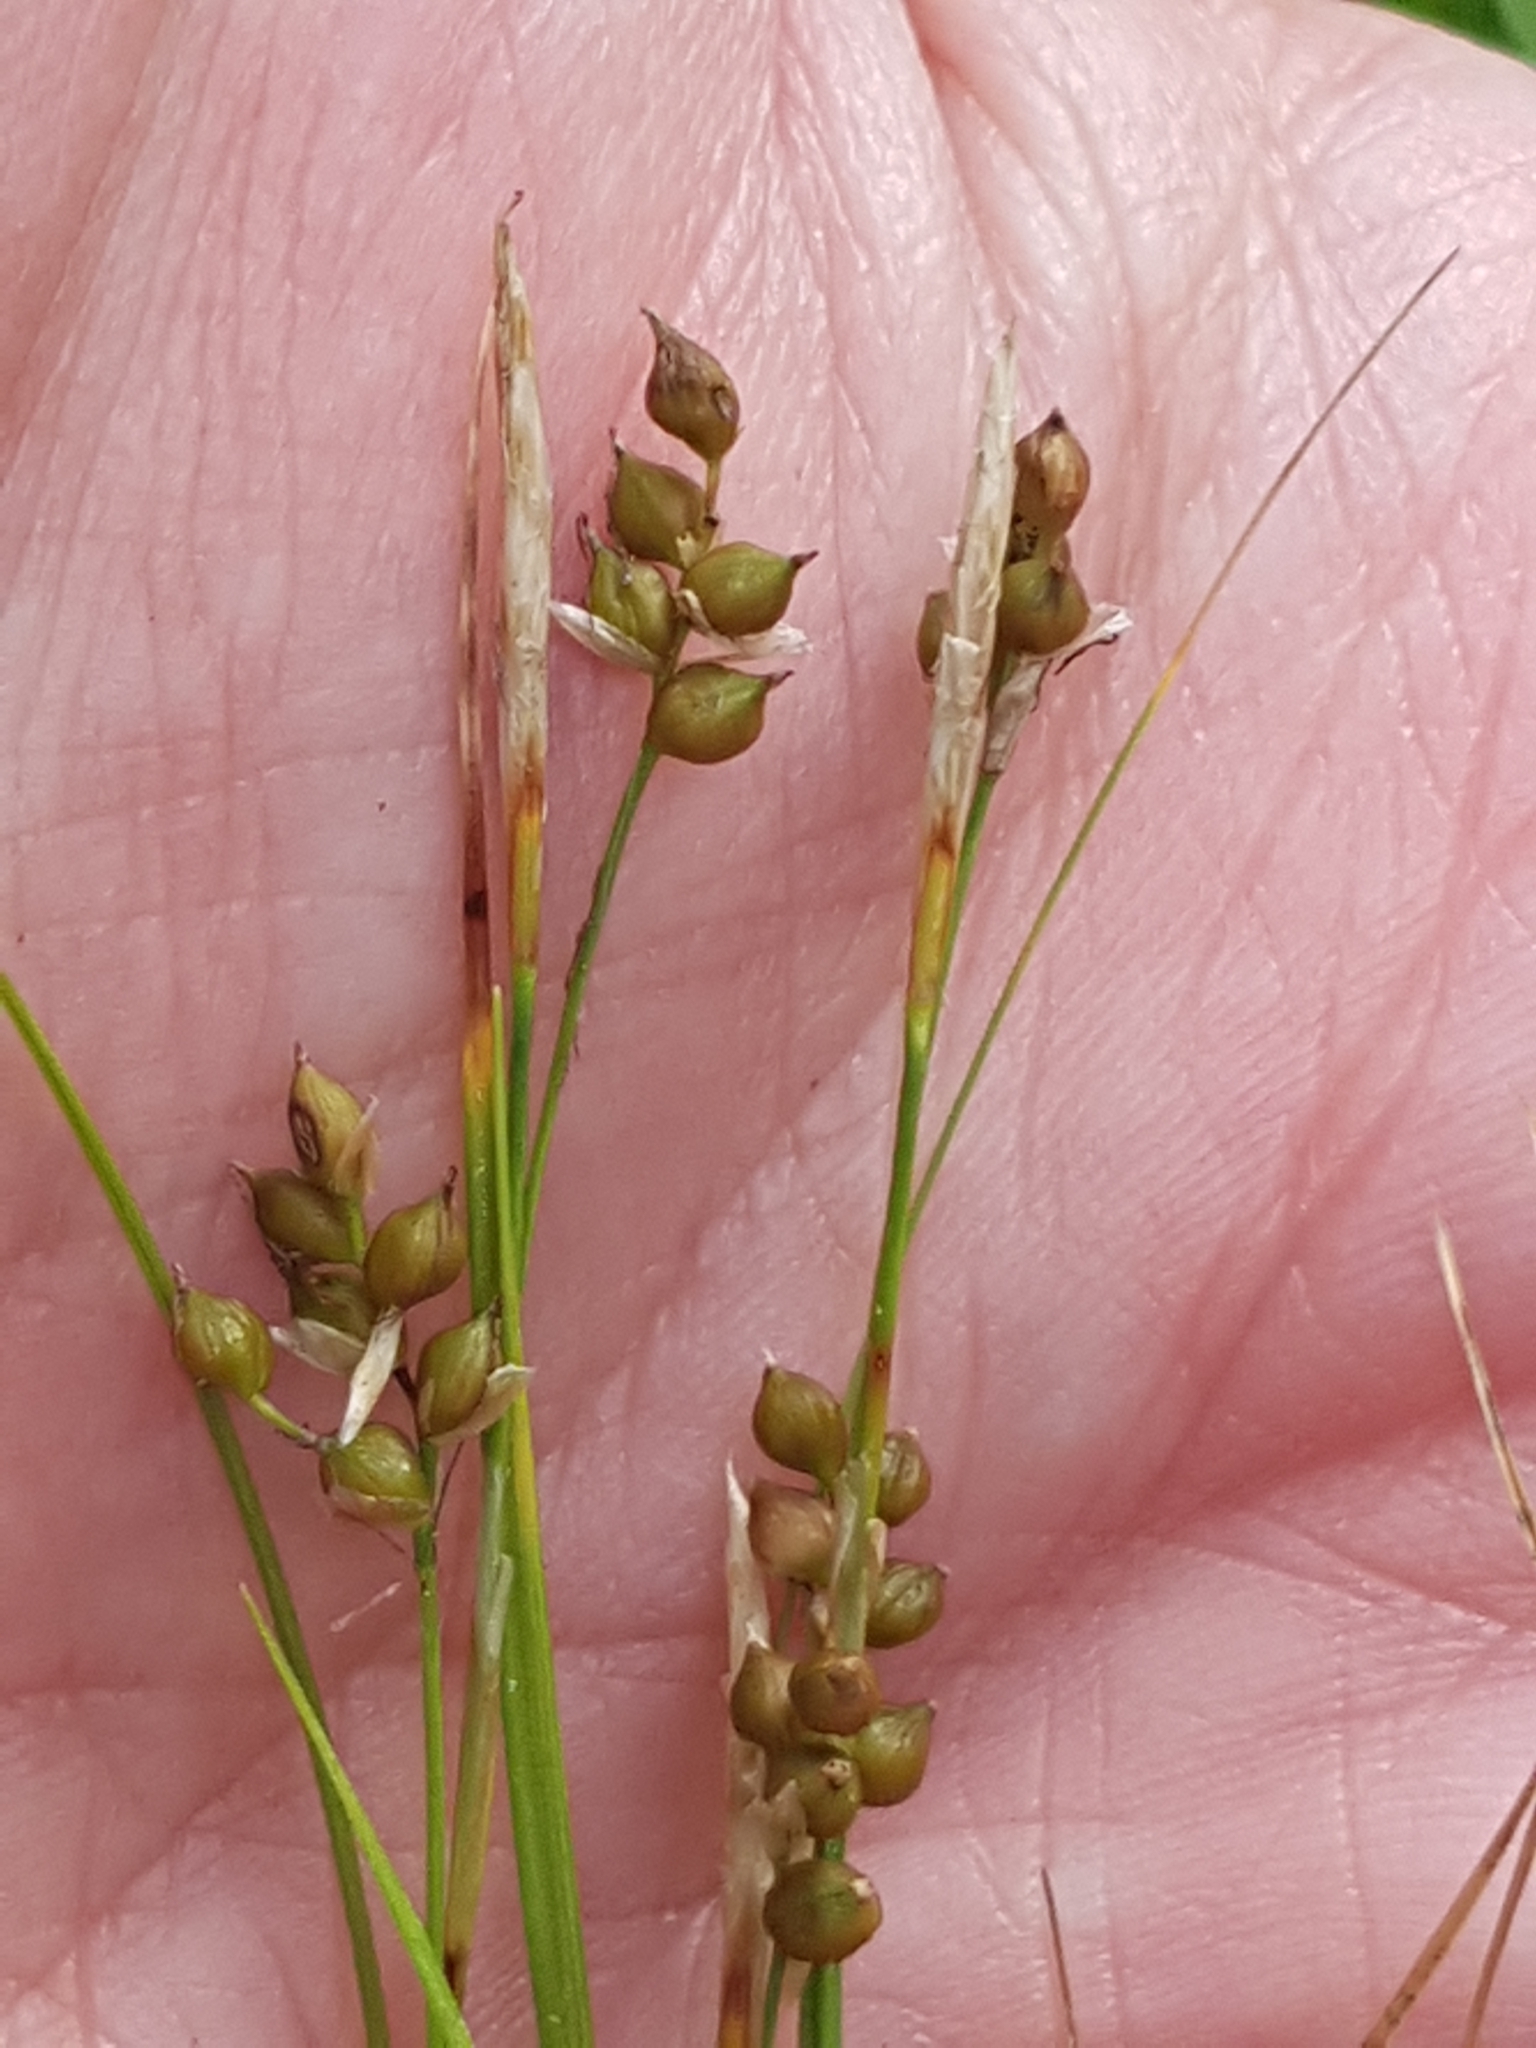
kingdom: Plantae
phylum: Tracheophyta
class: Liliopsida
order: Poales
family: Cyperaceae
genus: Carex
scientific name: Carex alba
